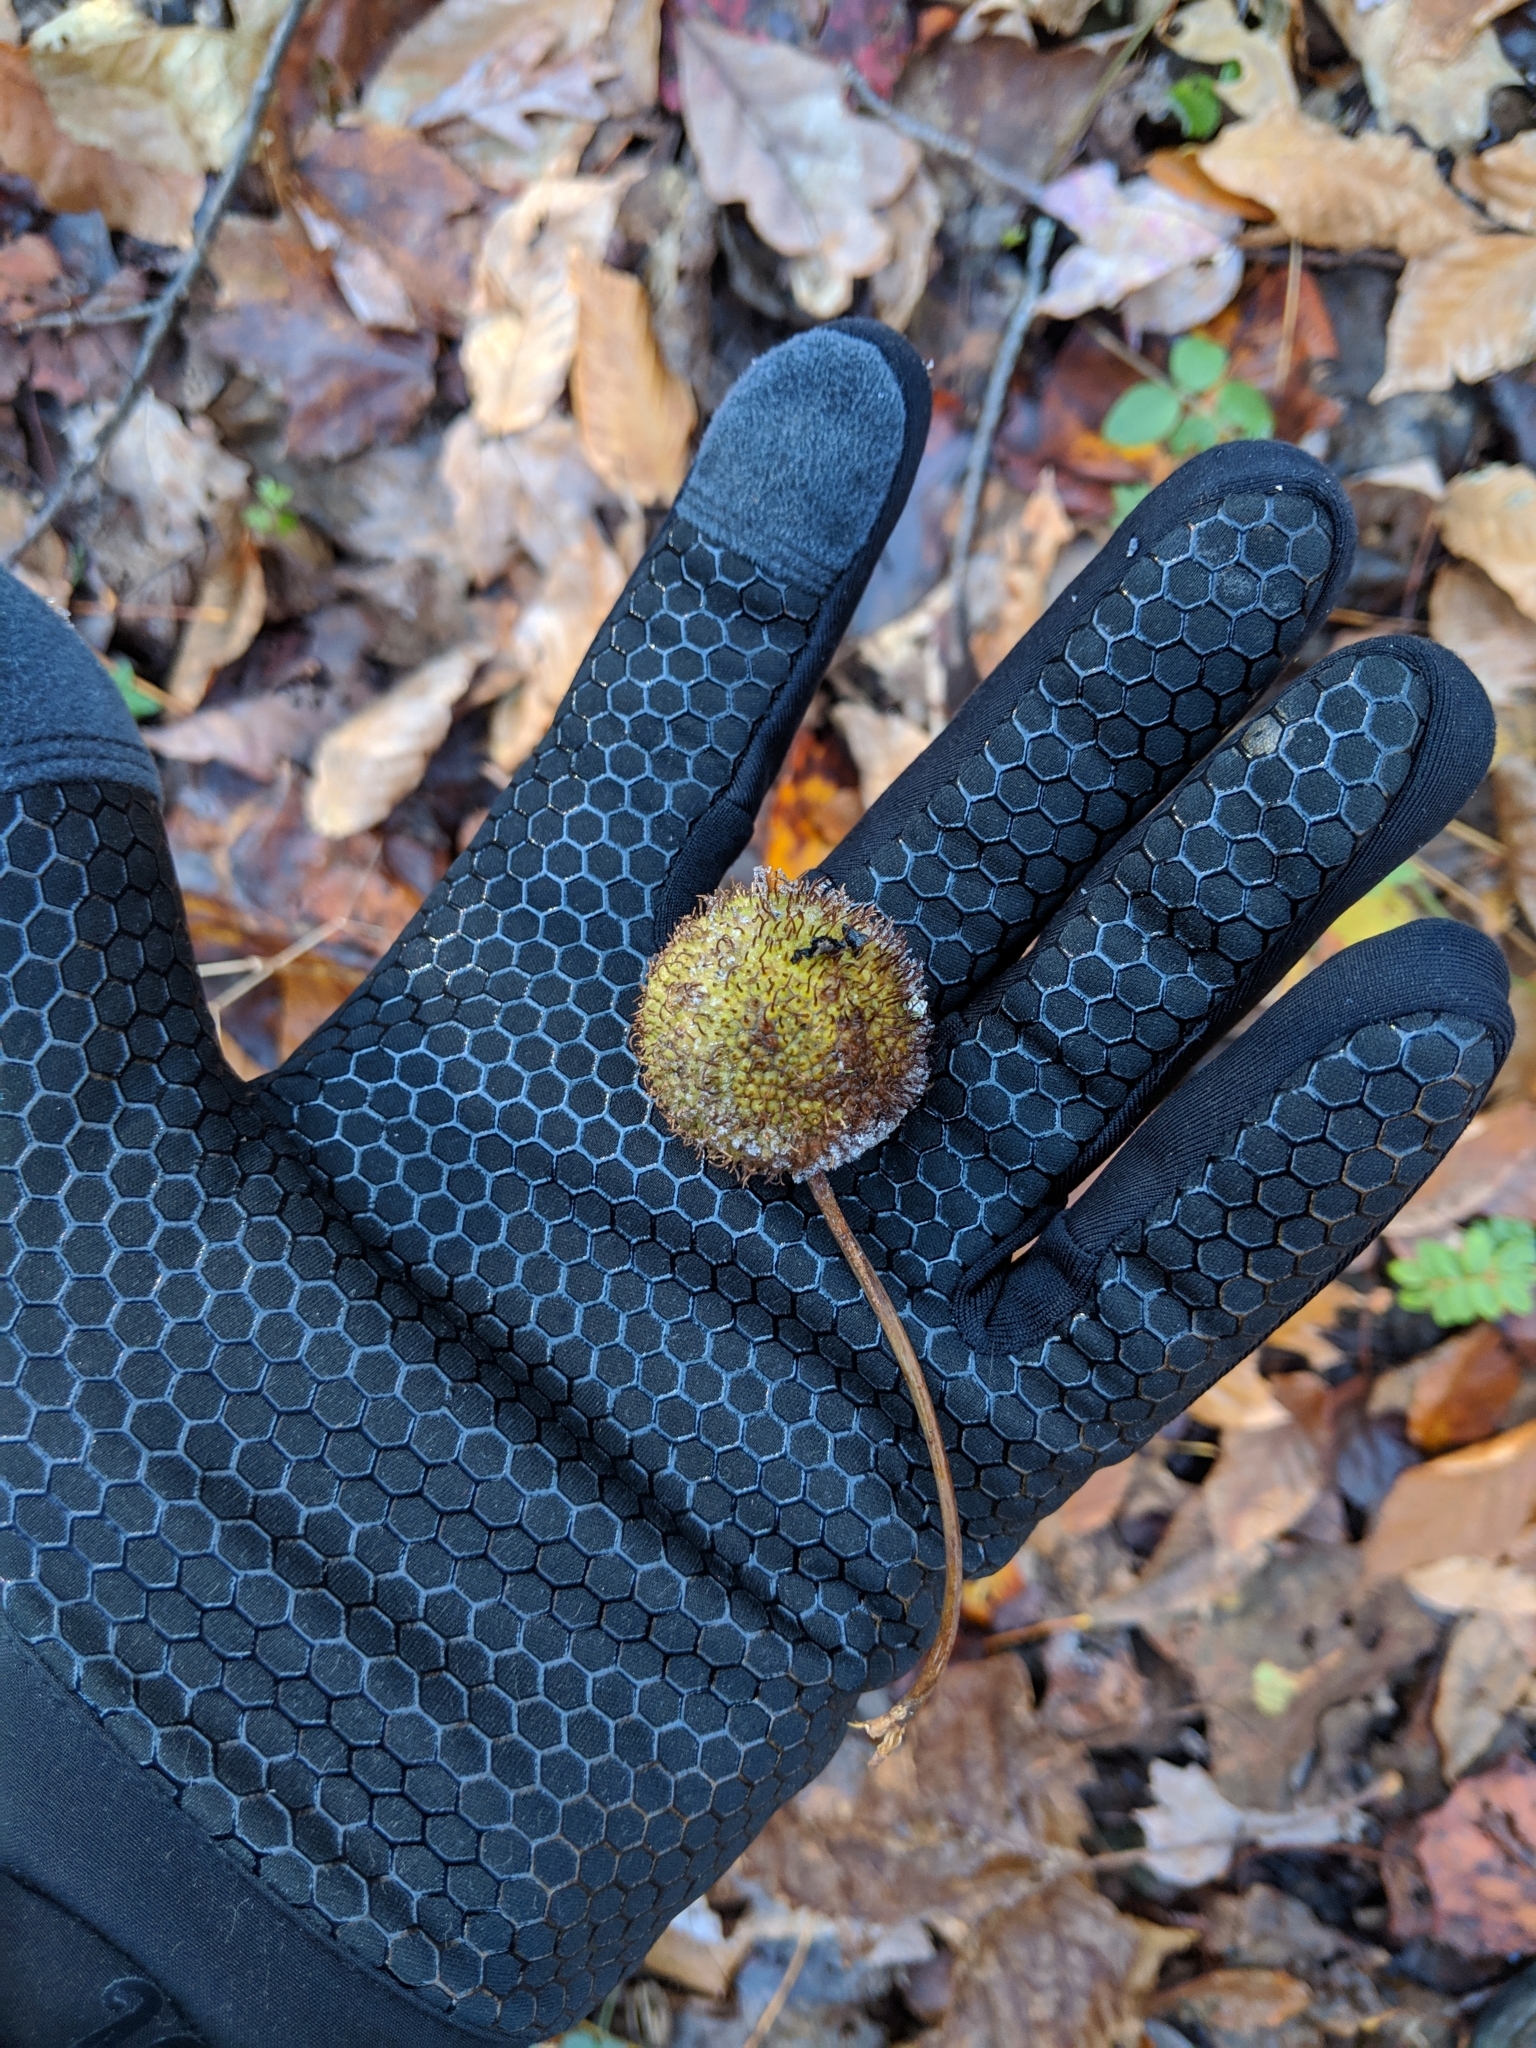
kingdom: Plantae
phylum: Tracheophyta
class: Magnoliopsida
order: Proteales
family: Platanaceae
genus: Platanus
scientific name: Platanus occidentalis
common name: American sycamore
